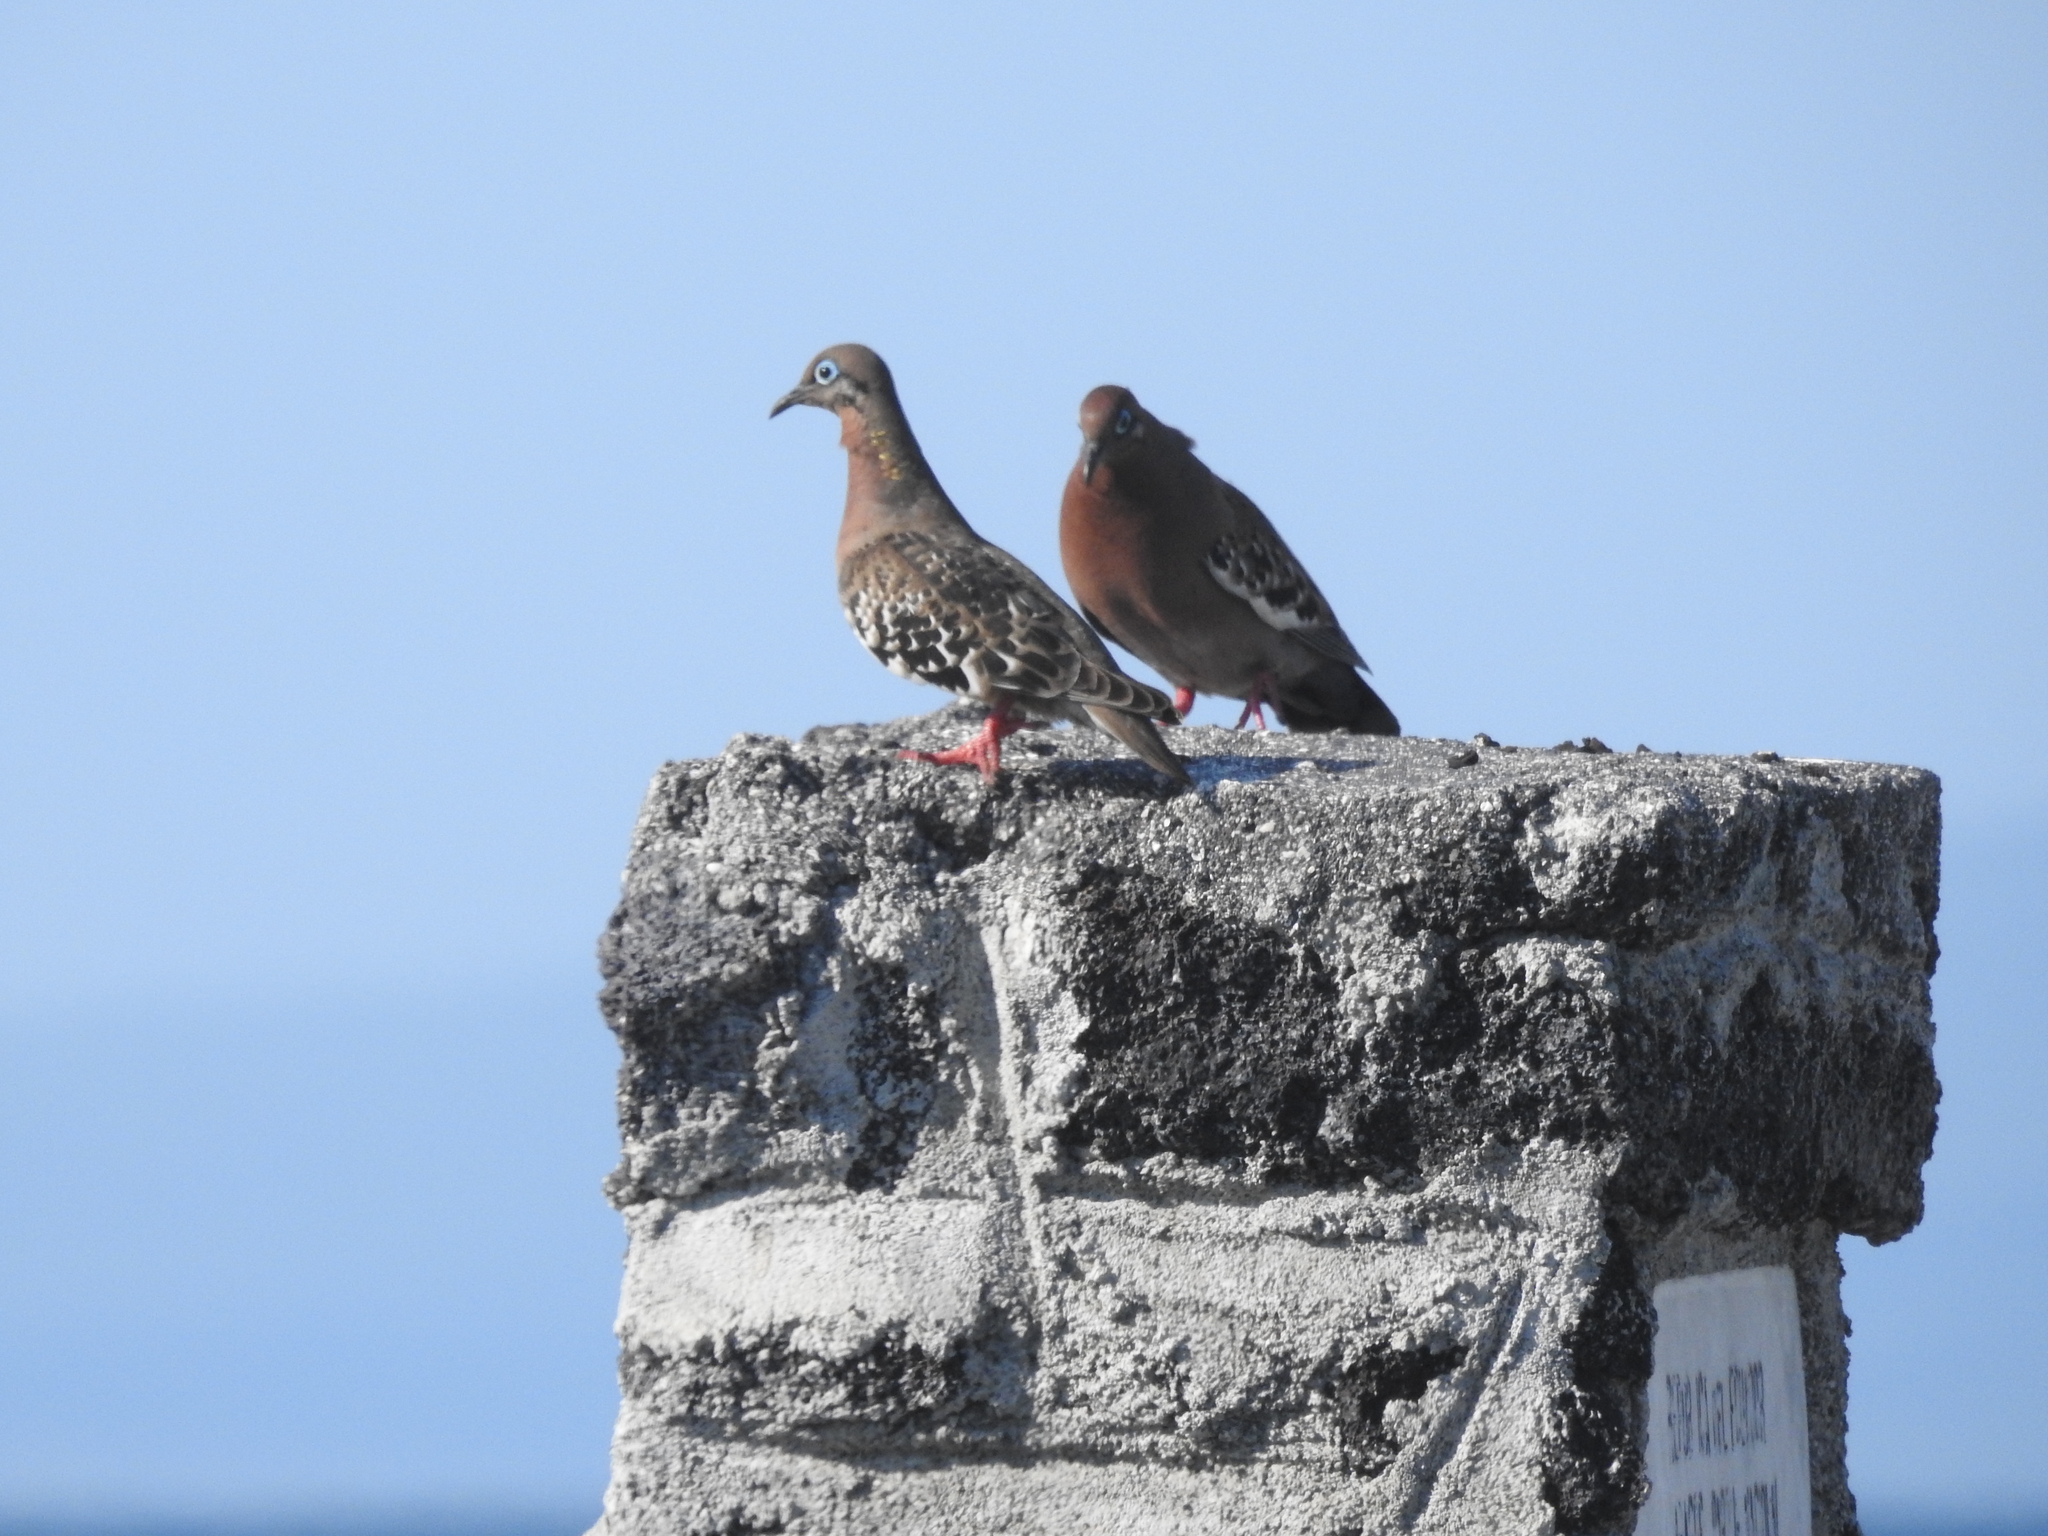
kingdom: Animalia
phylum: Chordata
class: Aves
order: Columbiformes
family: Columbidae
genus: Zenaida
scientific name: Zenaida galapagoensis
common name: Galapagos dove
